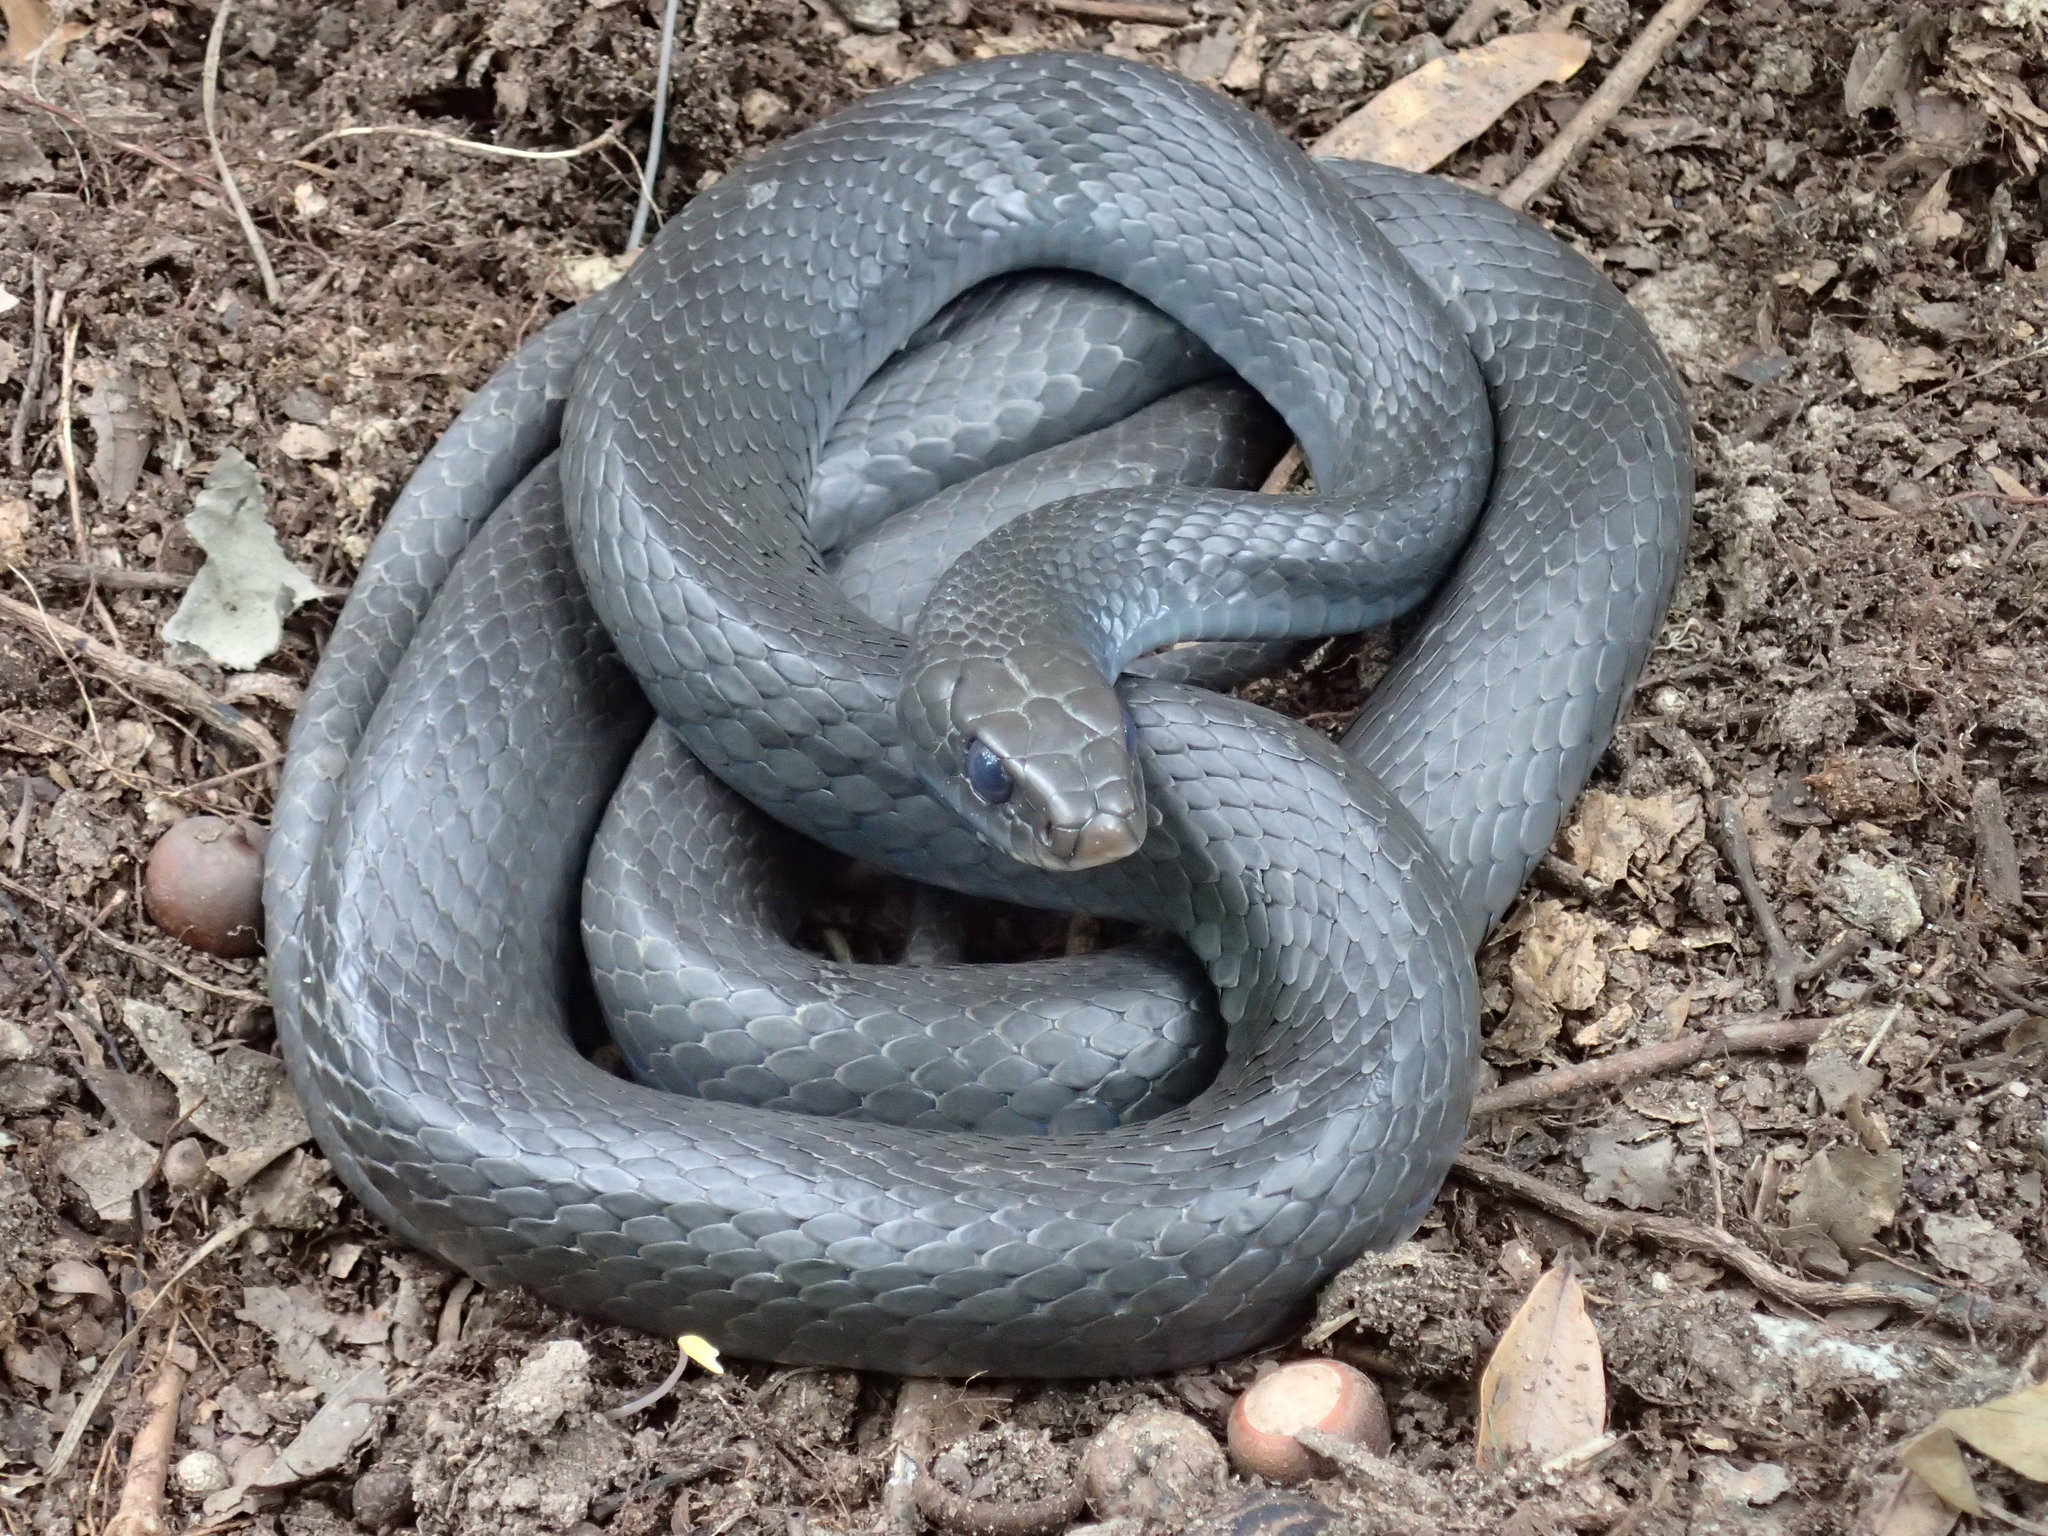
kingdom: Animalia
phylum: Chordata
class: Squamata
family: Colubridae
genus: Coluber
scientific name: Coluber constrictor
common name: Eastern racer
